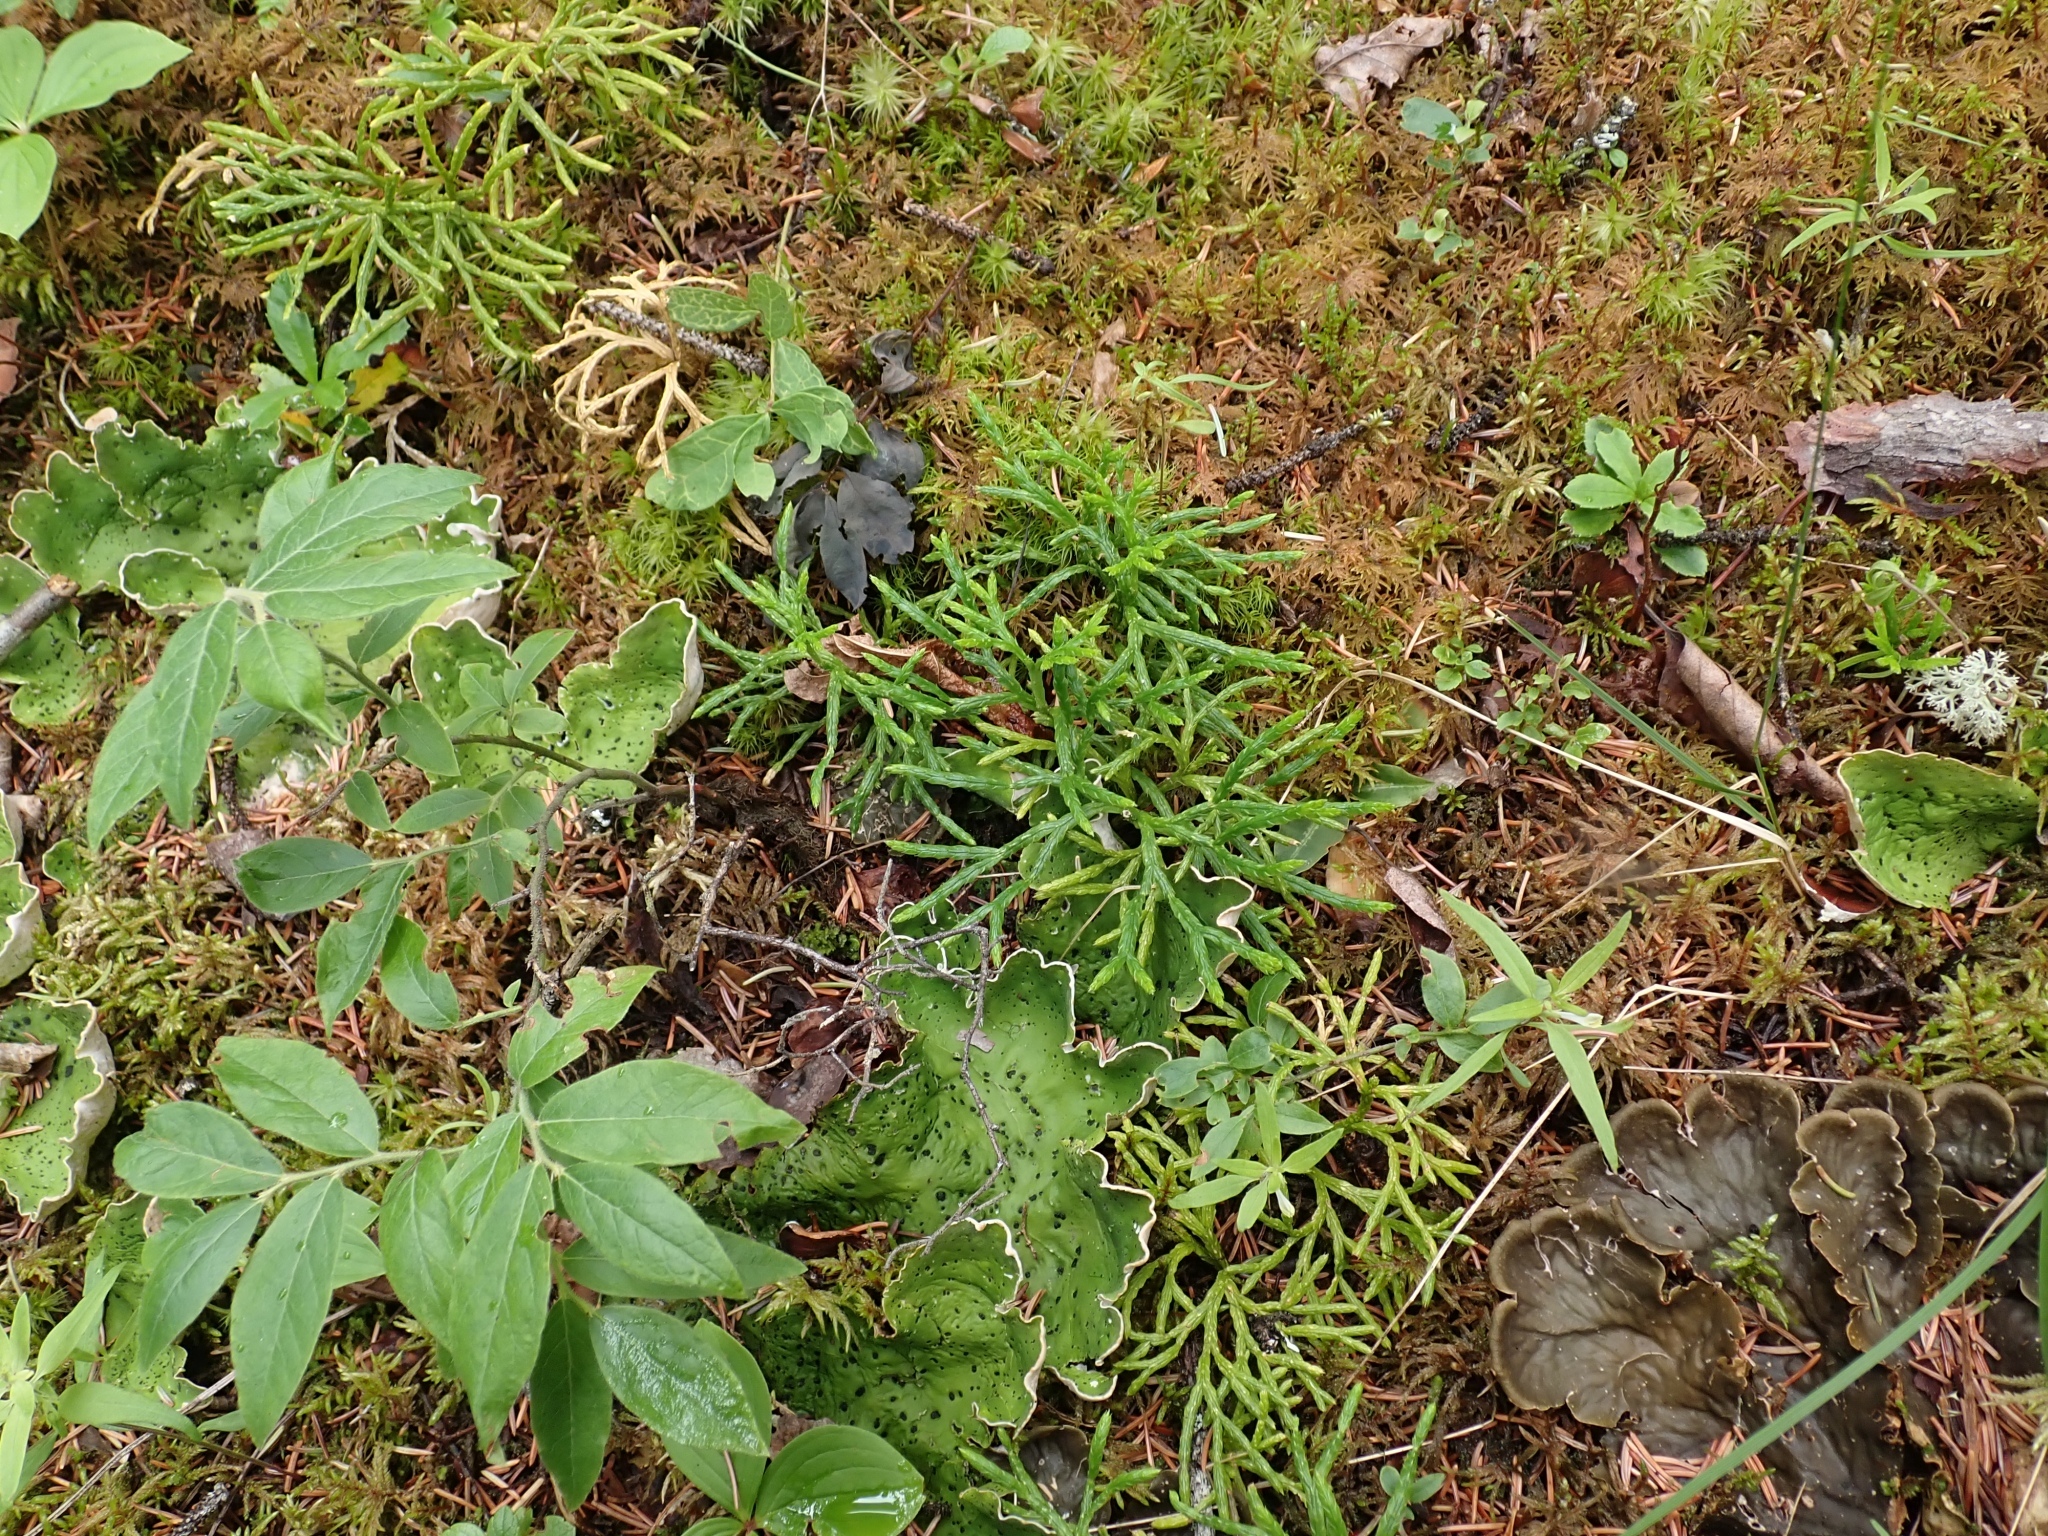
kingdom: Plantae
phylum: Tracheophyta
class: Lycopodiopsida
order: Lycopodiales
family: Lycopodiaceae
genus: Diphasiastrum
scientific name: Diphasiastrum complanatum
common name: Northern running-pine
